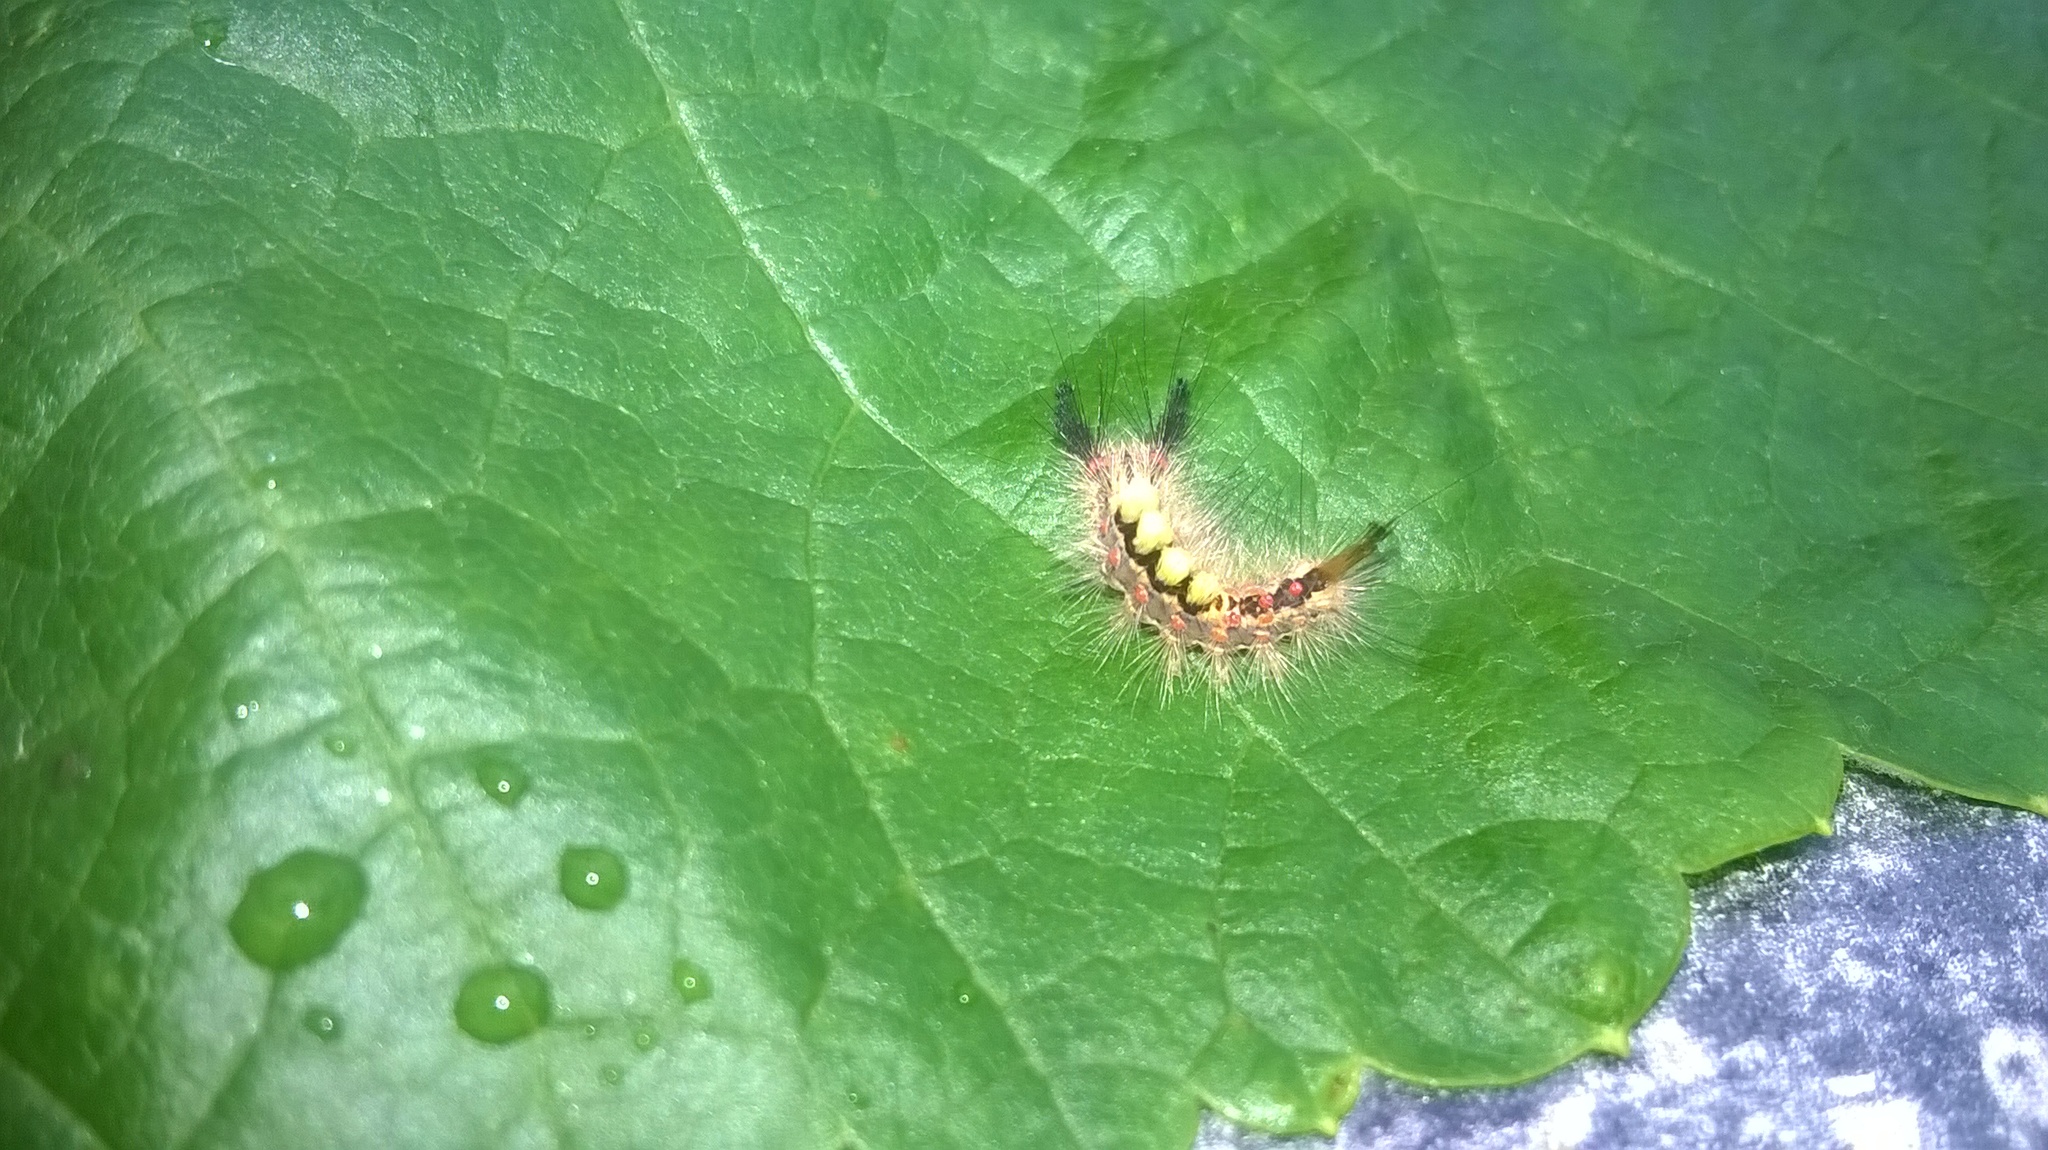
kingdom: Animalia
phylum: Arthropoda
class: Insecta
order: Lepidoptera
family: Erebidae
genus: Orgyia
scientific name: Orgyia antiqua
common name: Vapourer
